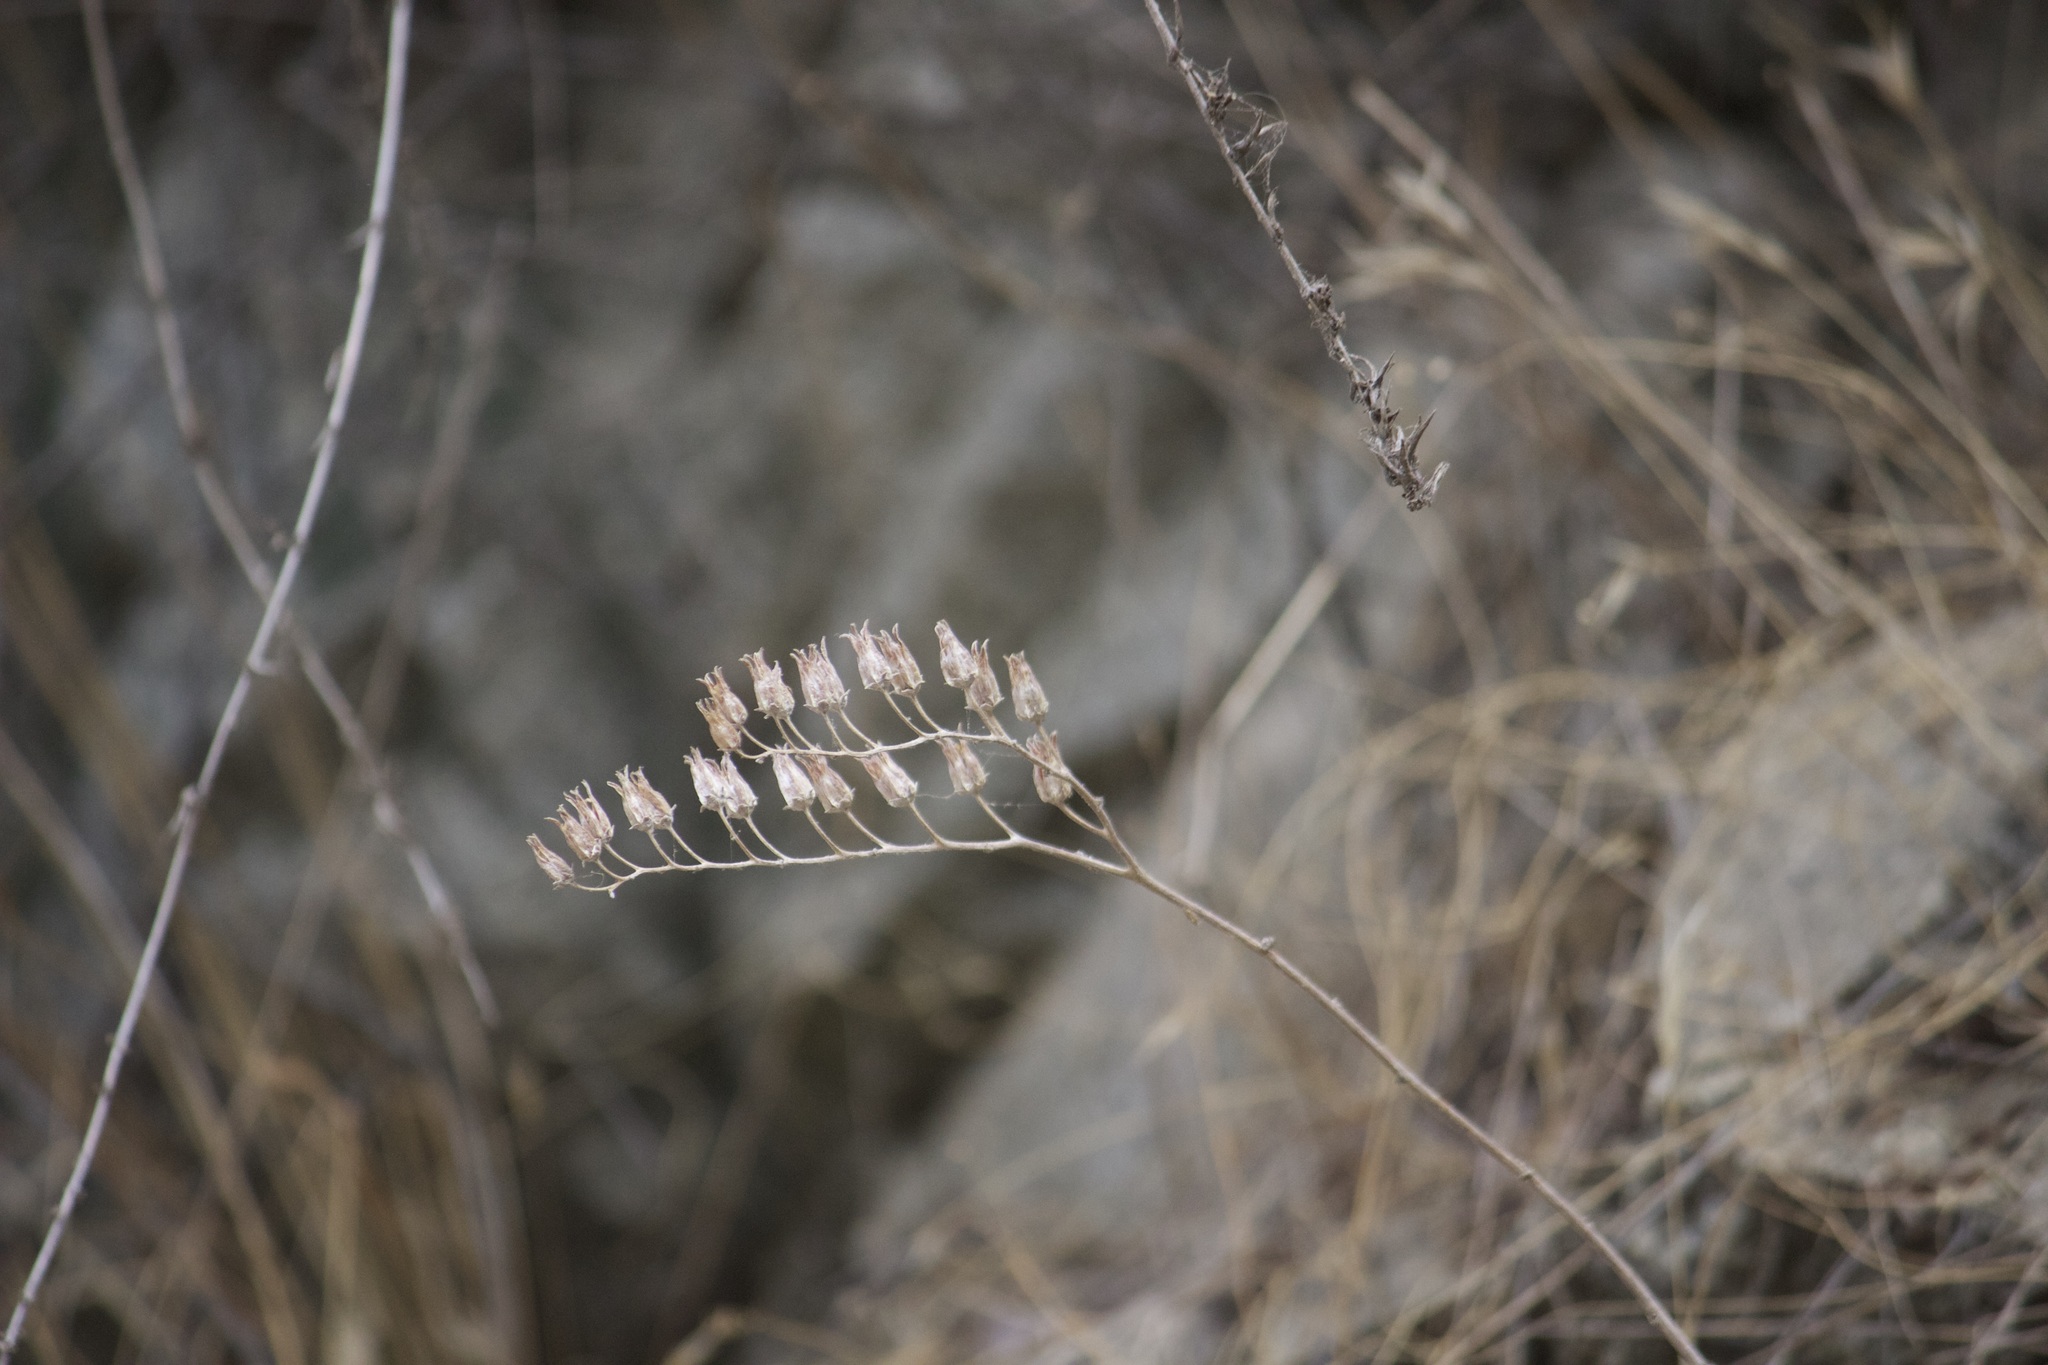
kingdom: Plantae
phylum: Tracheophyta
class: Magnoliopsida
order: Saxifragales
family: Crassulaceae
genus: Dudleya
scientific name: Dudleya
